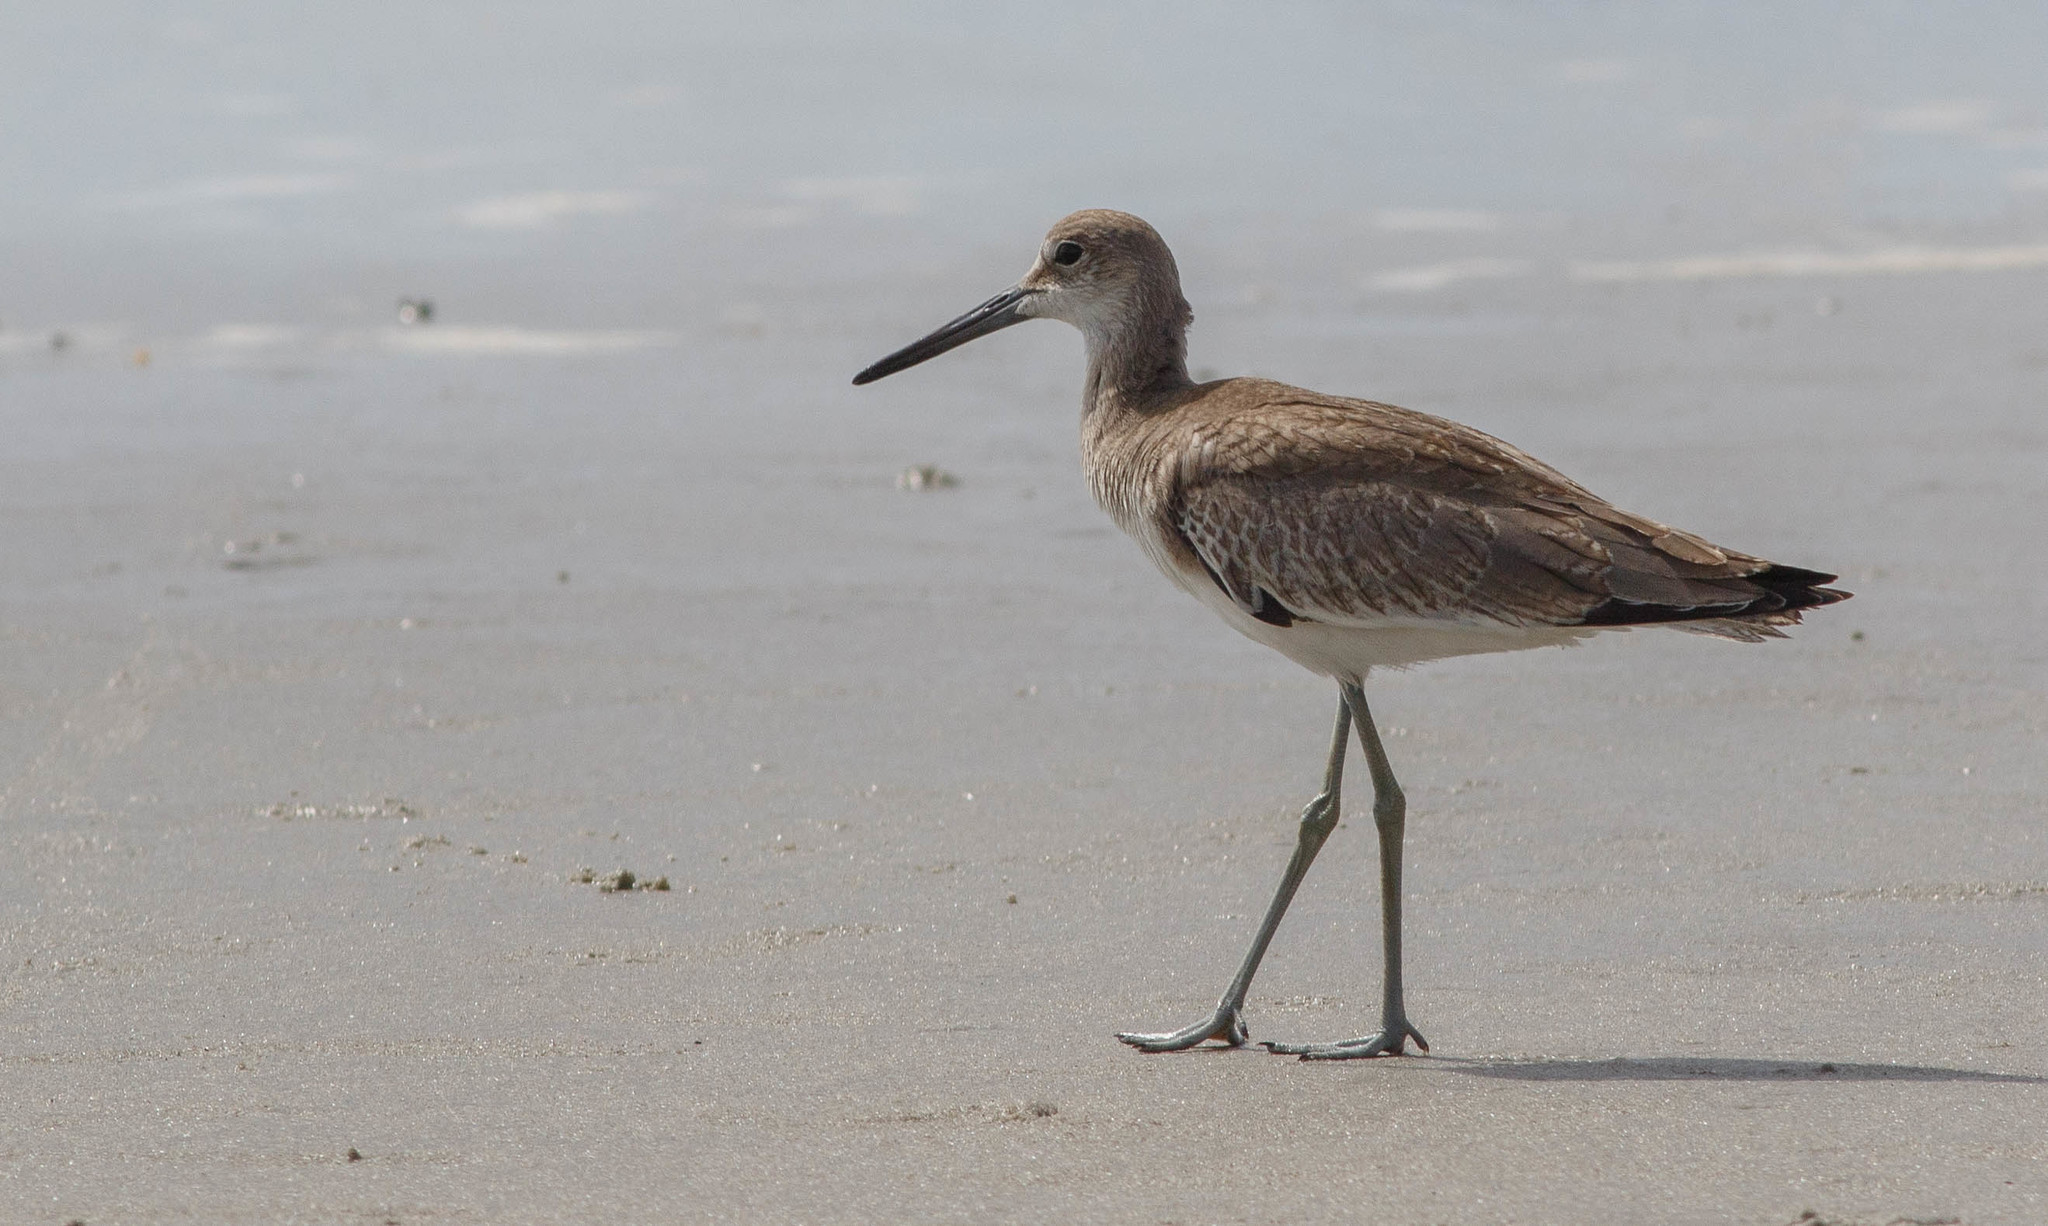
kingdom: Animalia
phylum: Chordata
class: Aves
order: Charadriiformes
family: Scolopacidae
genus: Tringa
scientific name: Tringa semipalmata
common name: Willet
